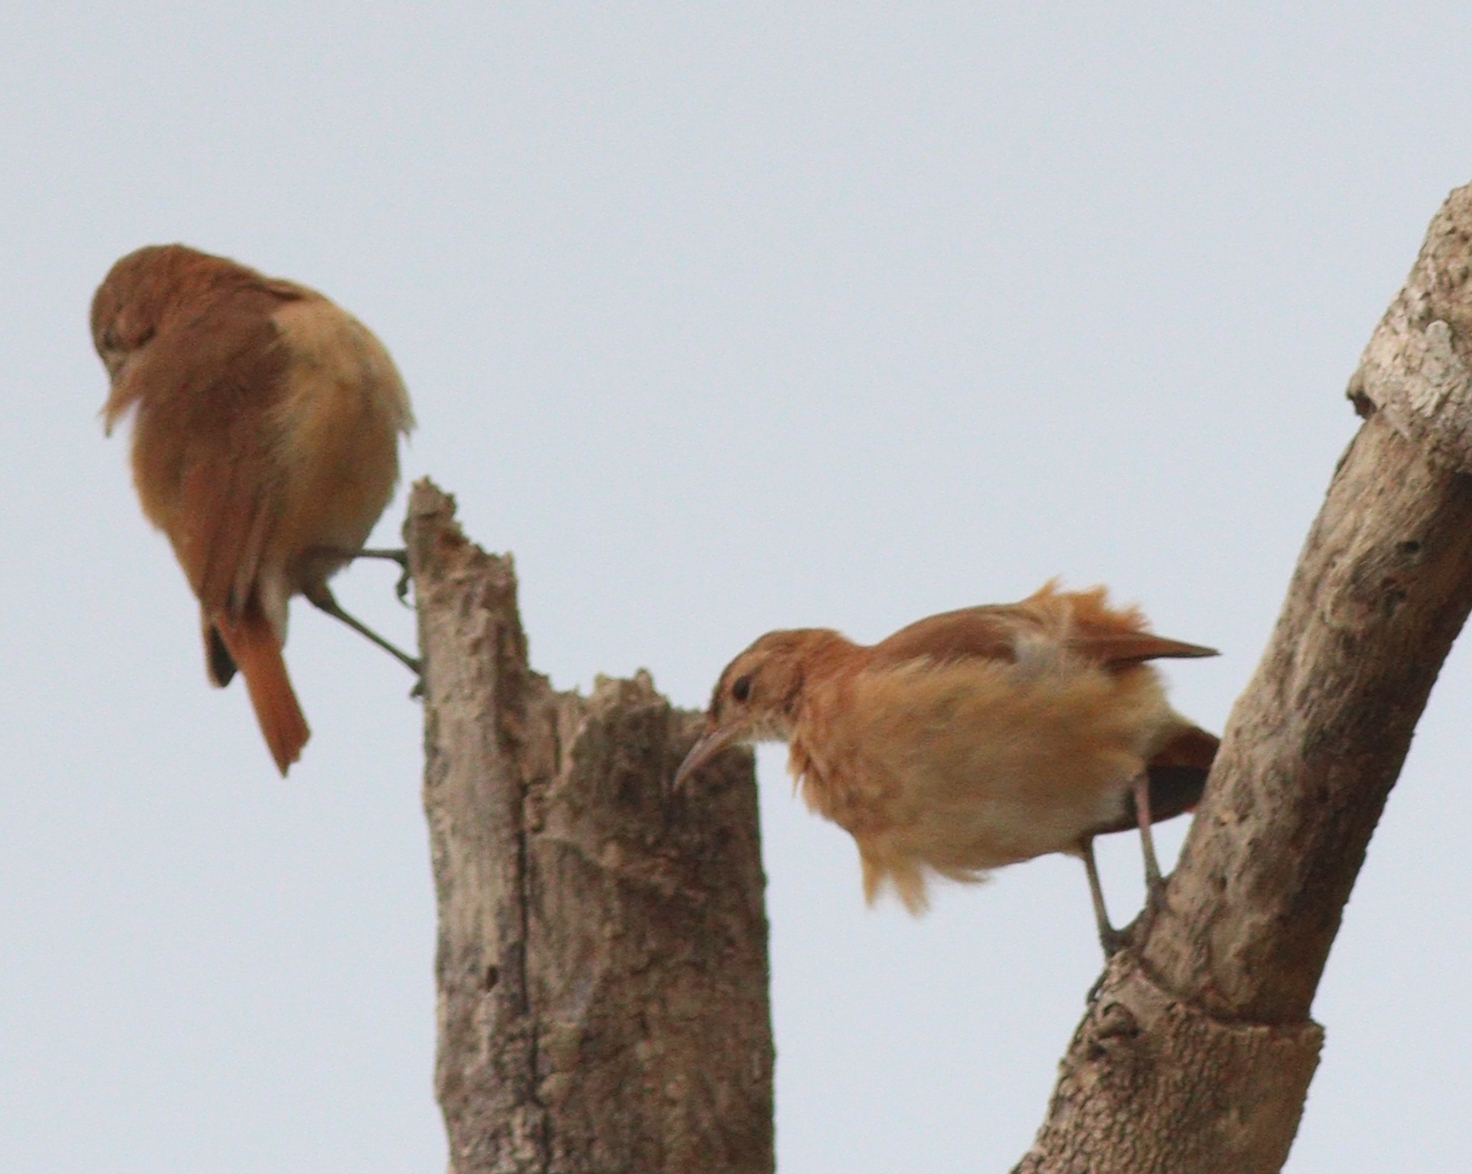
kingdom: Animalia
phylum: Chordata
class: Aves
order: Passeriformes
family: Furnariidae
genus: Furnarius
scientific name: Furnarius rufus
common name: Rufous hornero
